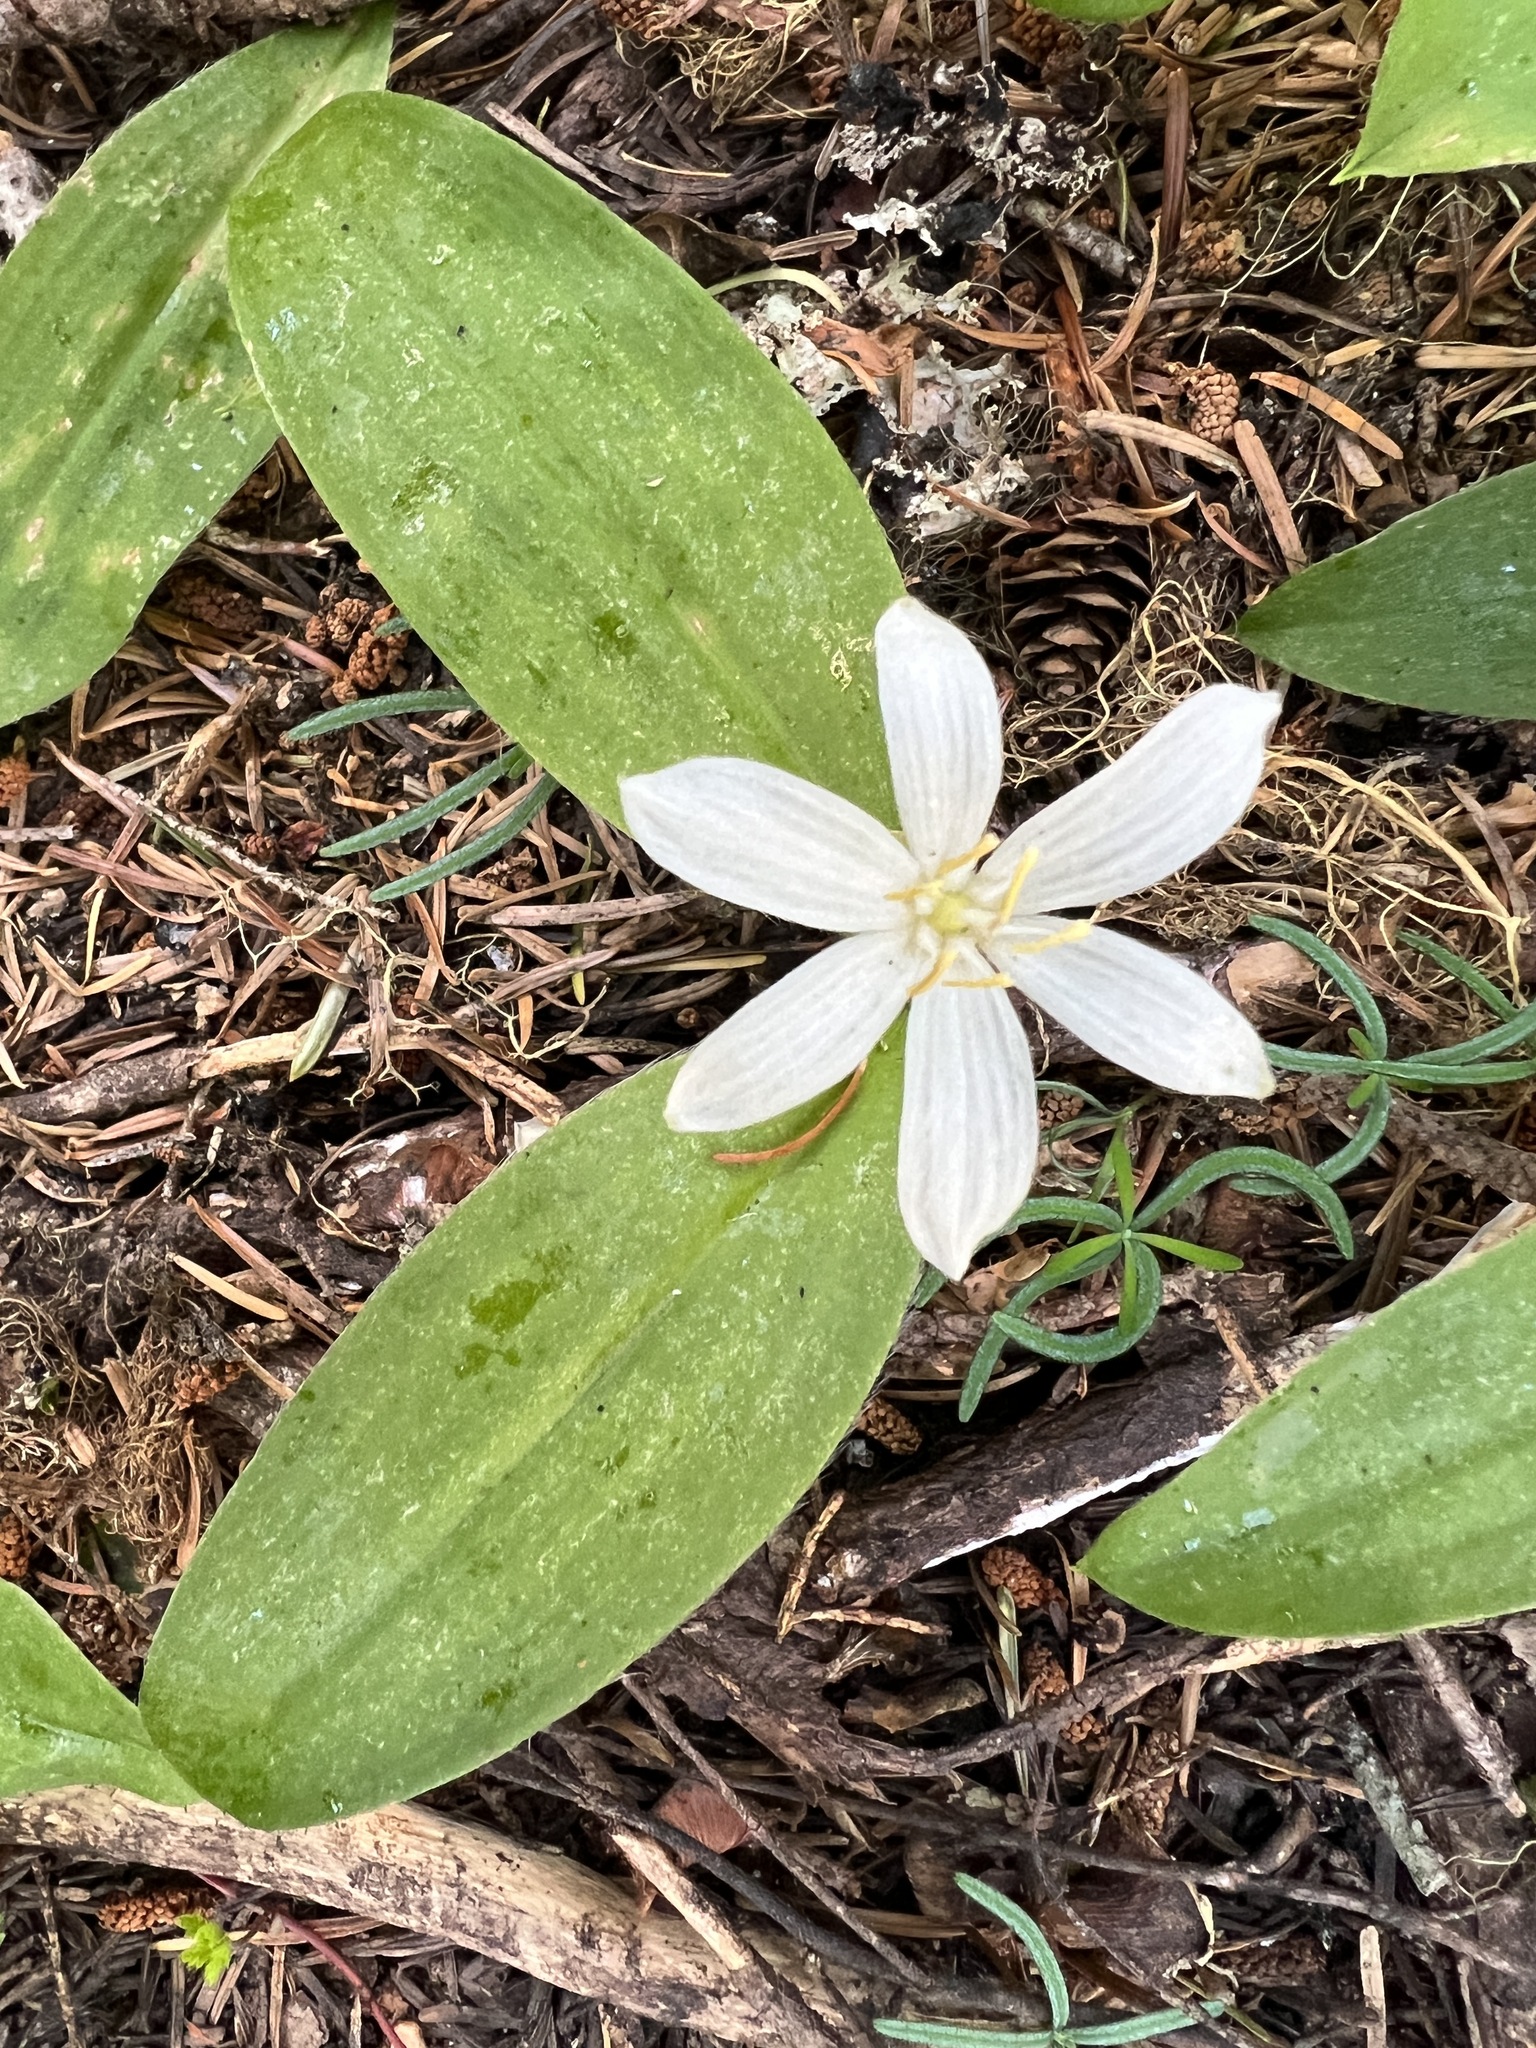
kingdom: Plantae
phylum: Tracheophyta
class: Liliopsida
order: Liliales
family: Liliaceae
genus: Clintonia
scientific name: Clintonia uniflora
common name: Queen's cup
